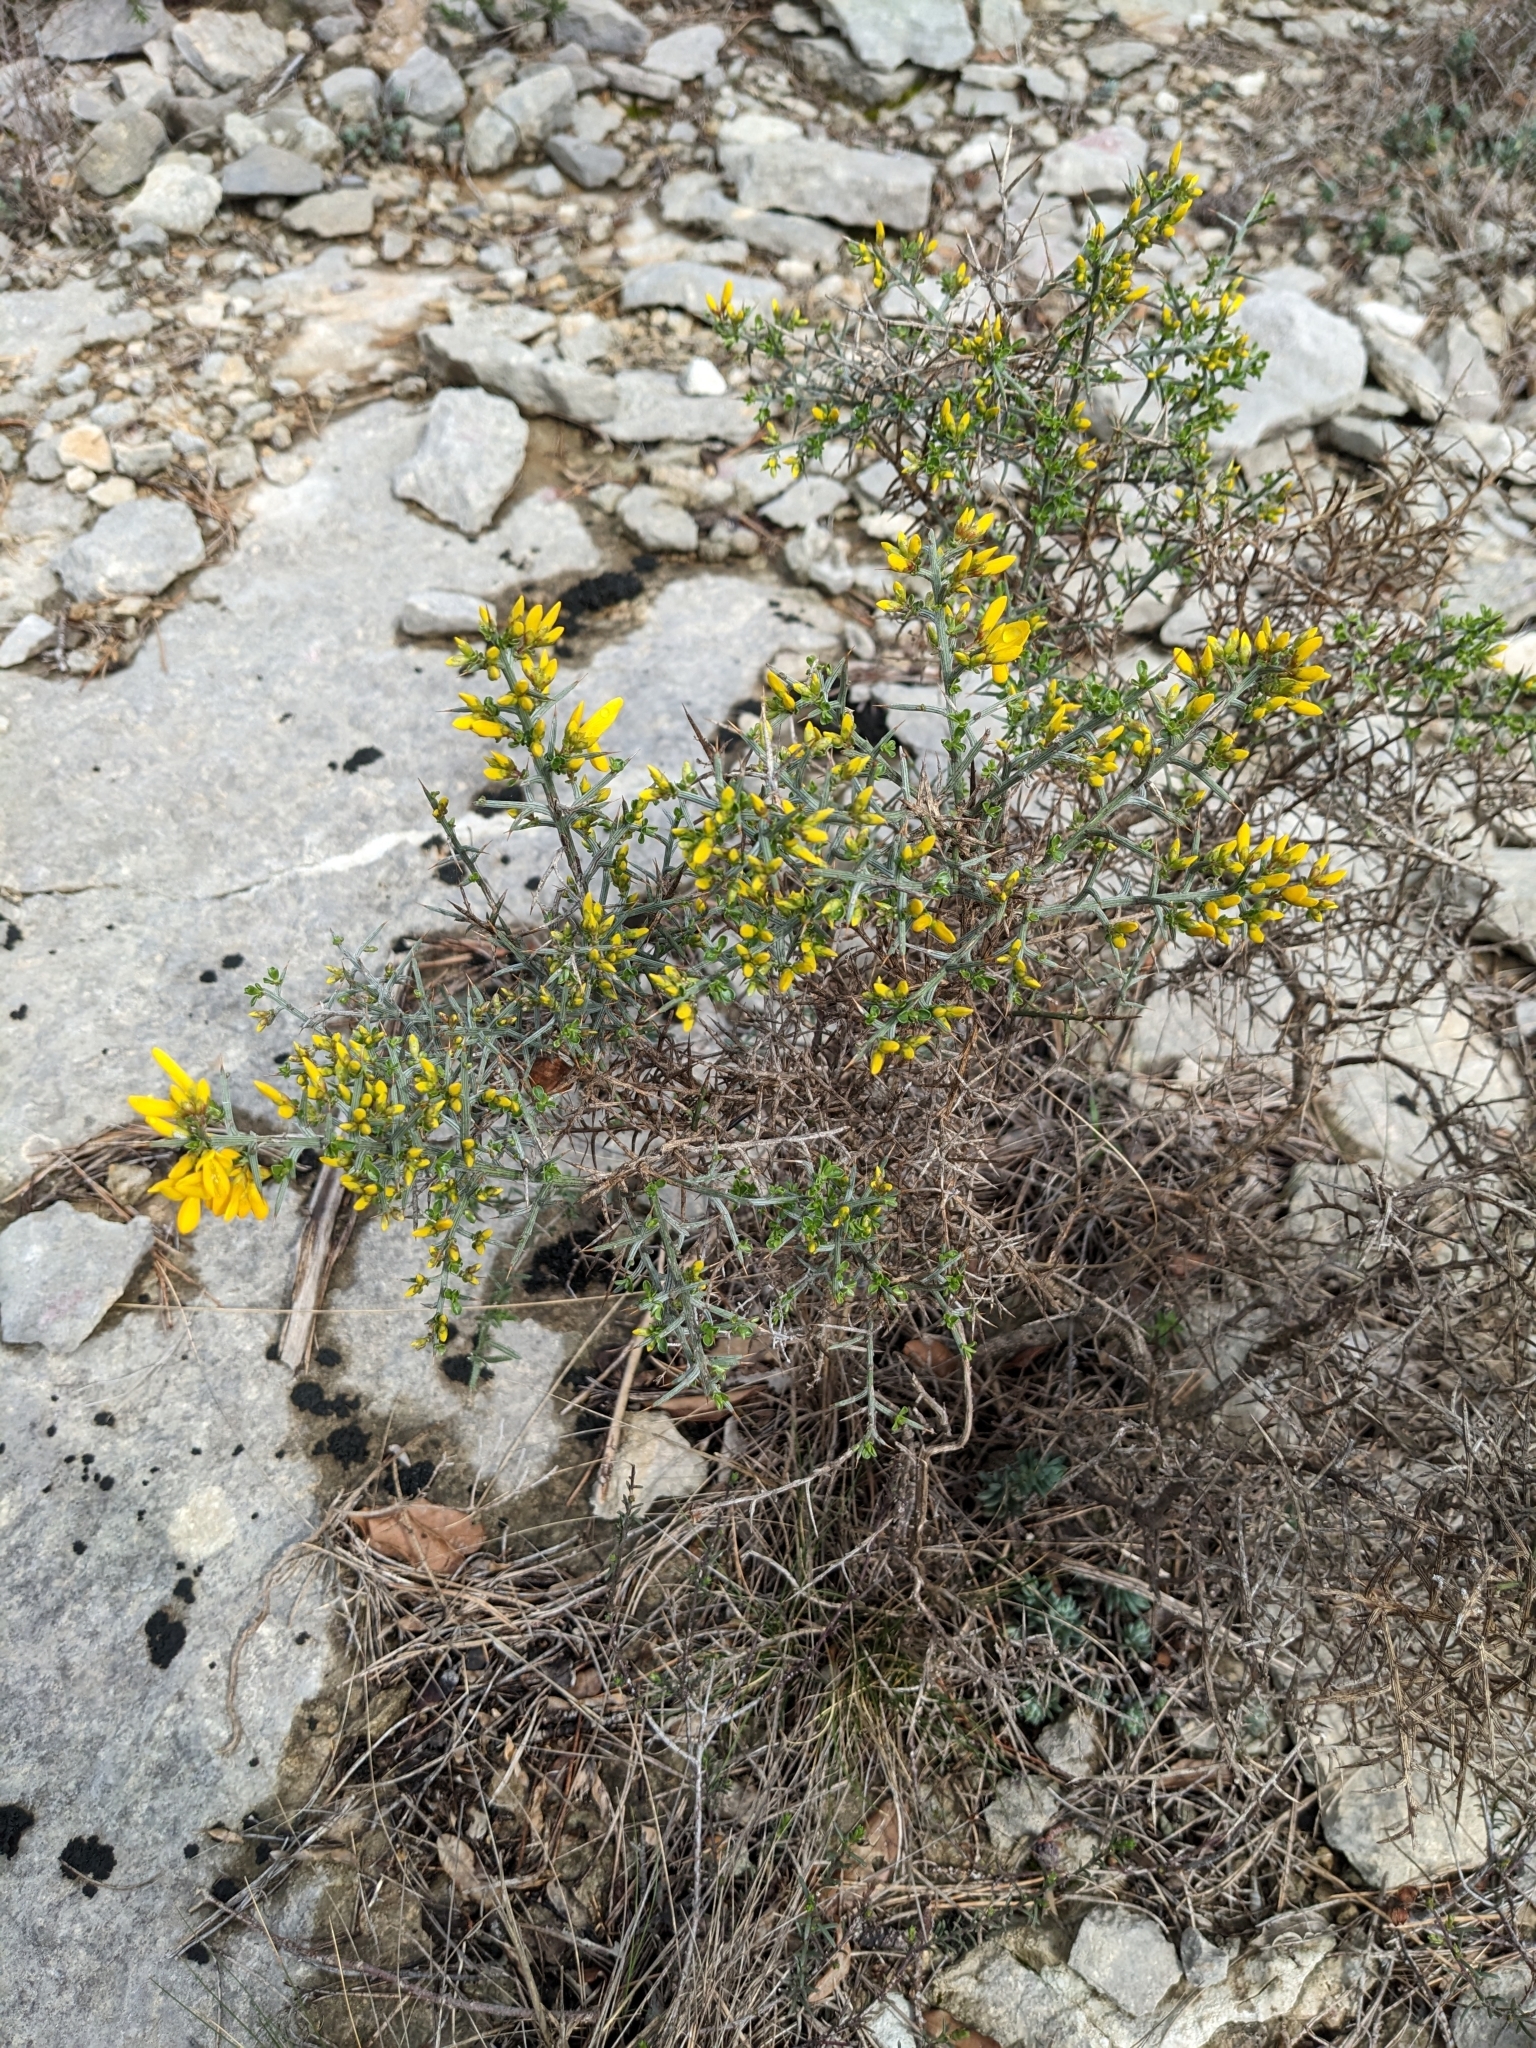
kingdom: Plantae
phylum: Tracheophyta
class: Magnoliopsida
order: Fabales
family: Fabaceae
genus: Genista
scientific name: Genista scorpius
